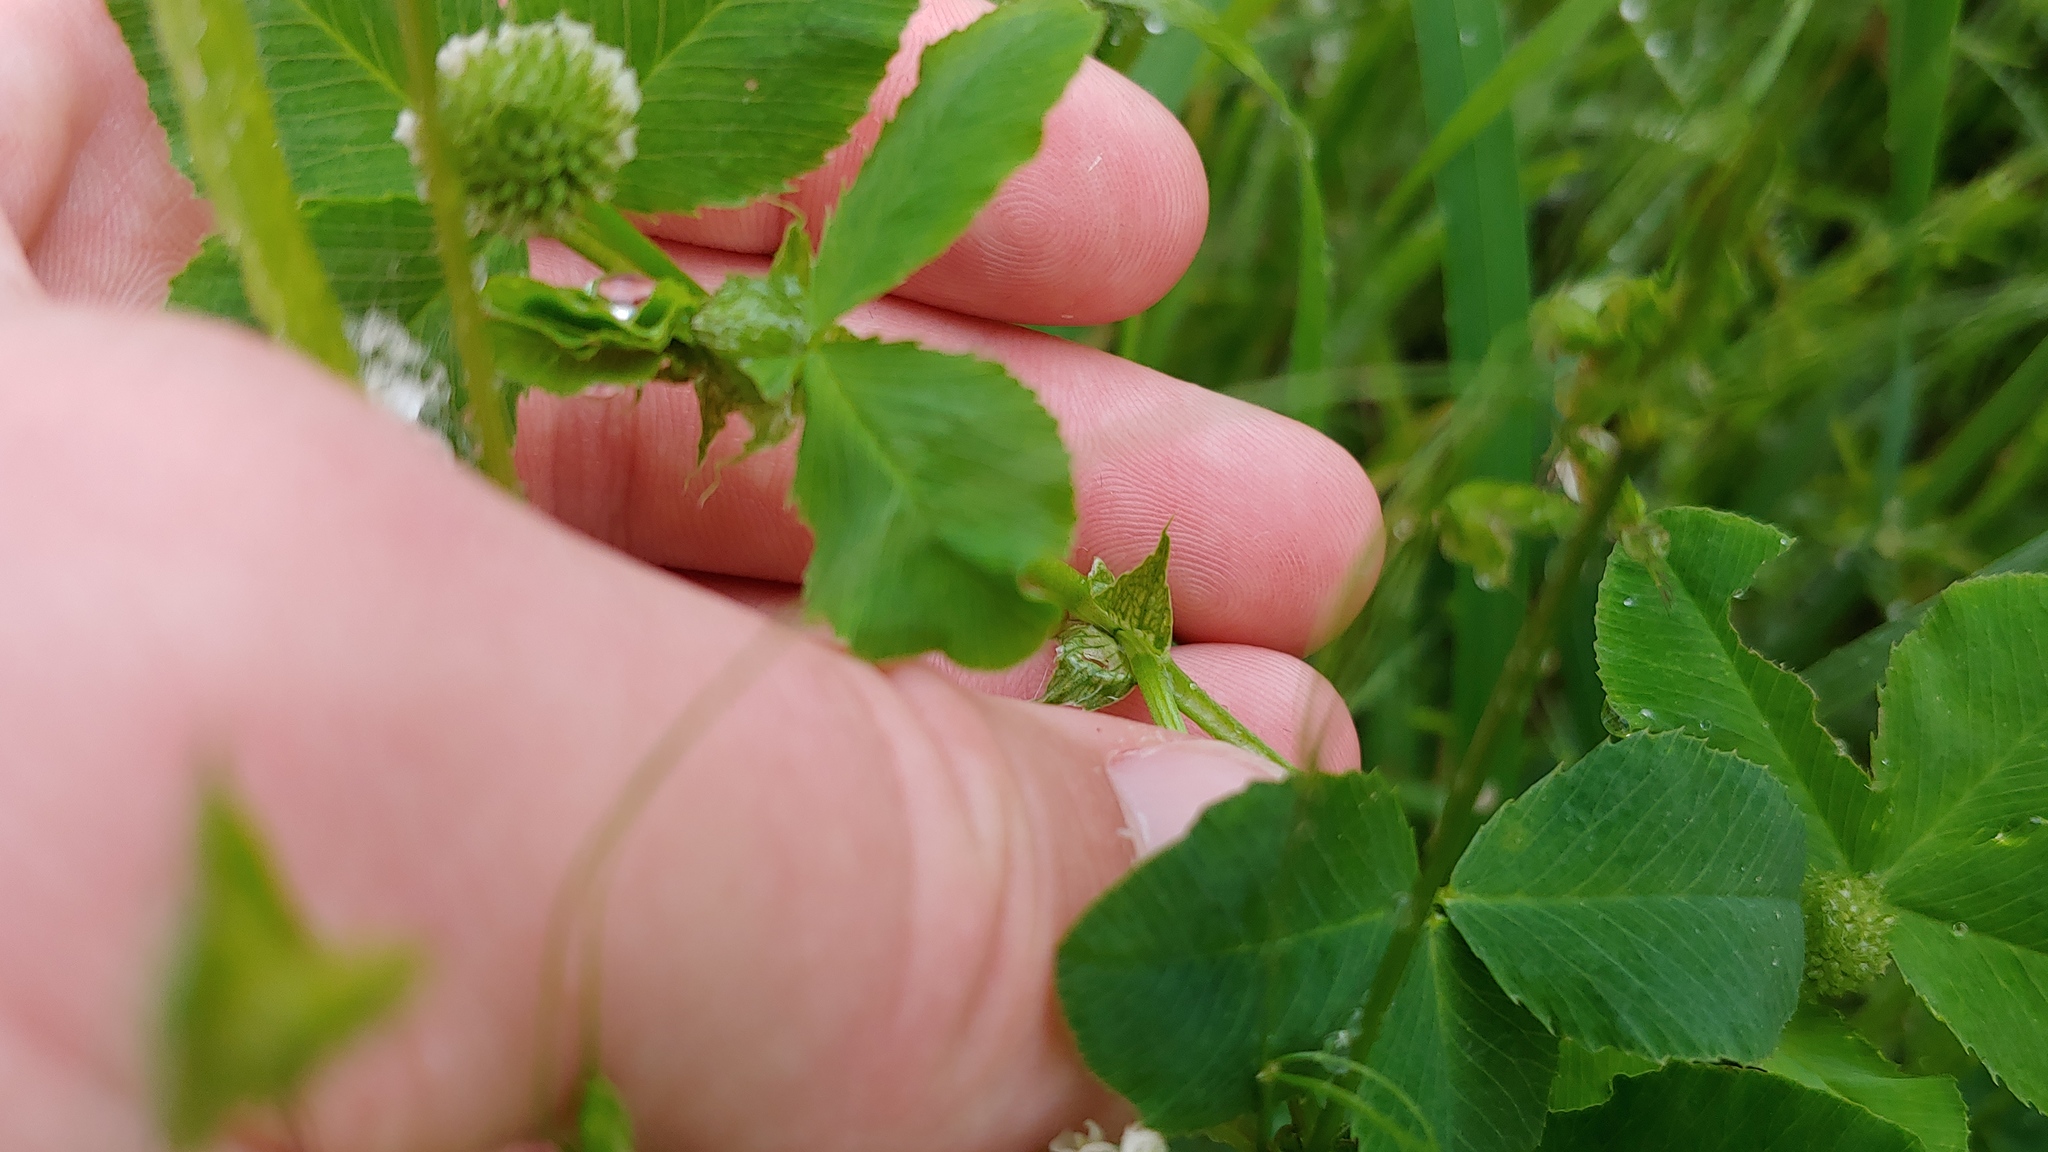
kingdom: Plantae
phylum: Tracheophyta
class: Magnoliopsida
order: Fabales
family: Fabaceae
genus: Trifolium
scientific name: Trifolium hybridum
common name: Alsike clover
